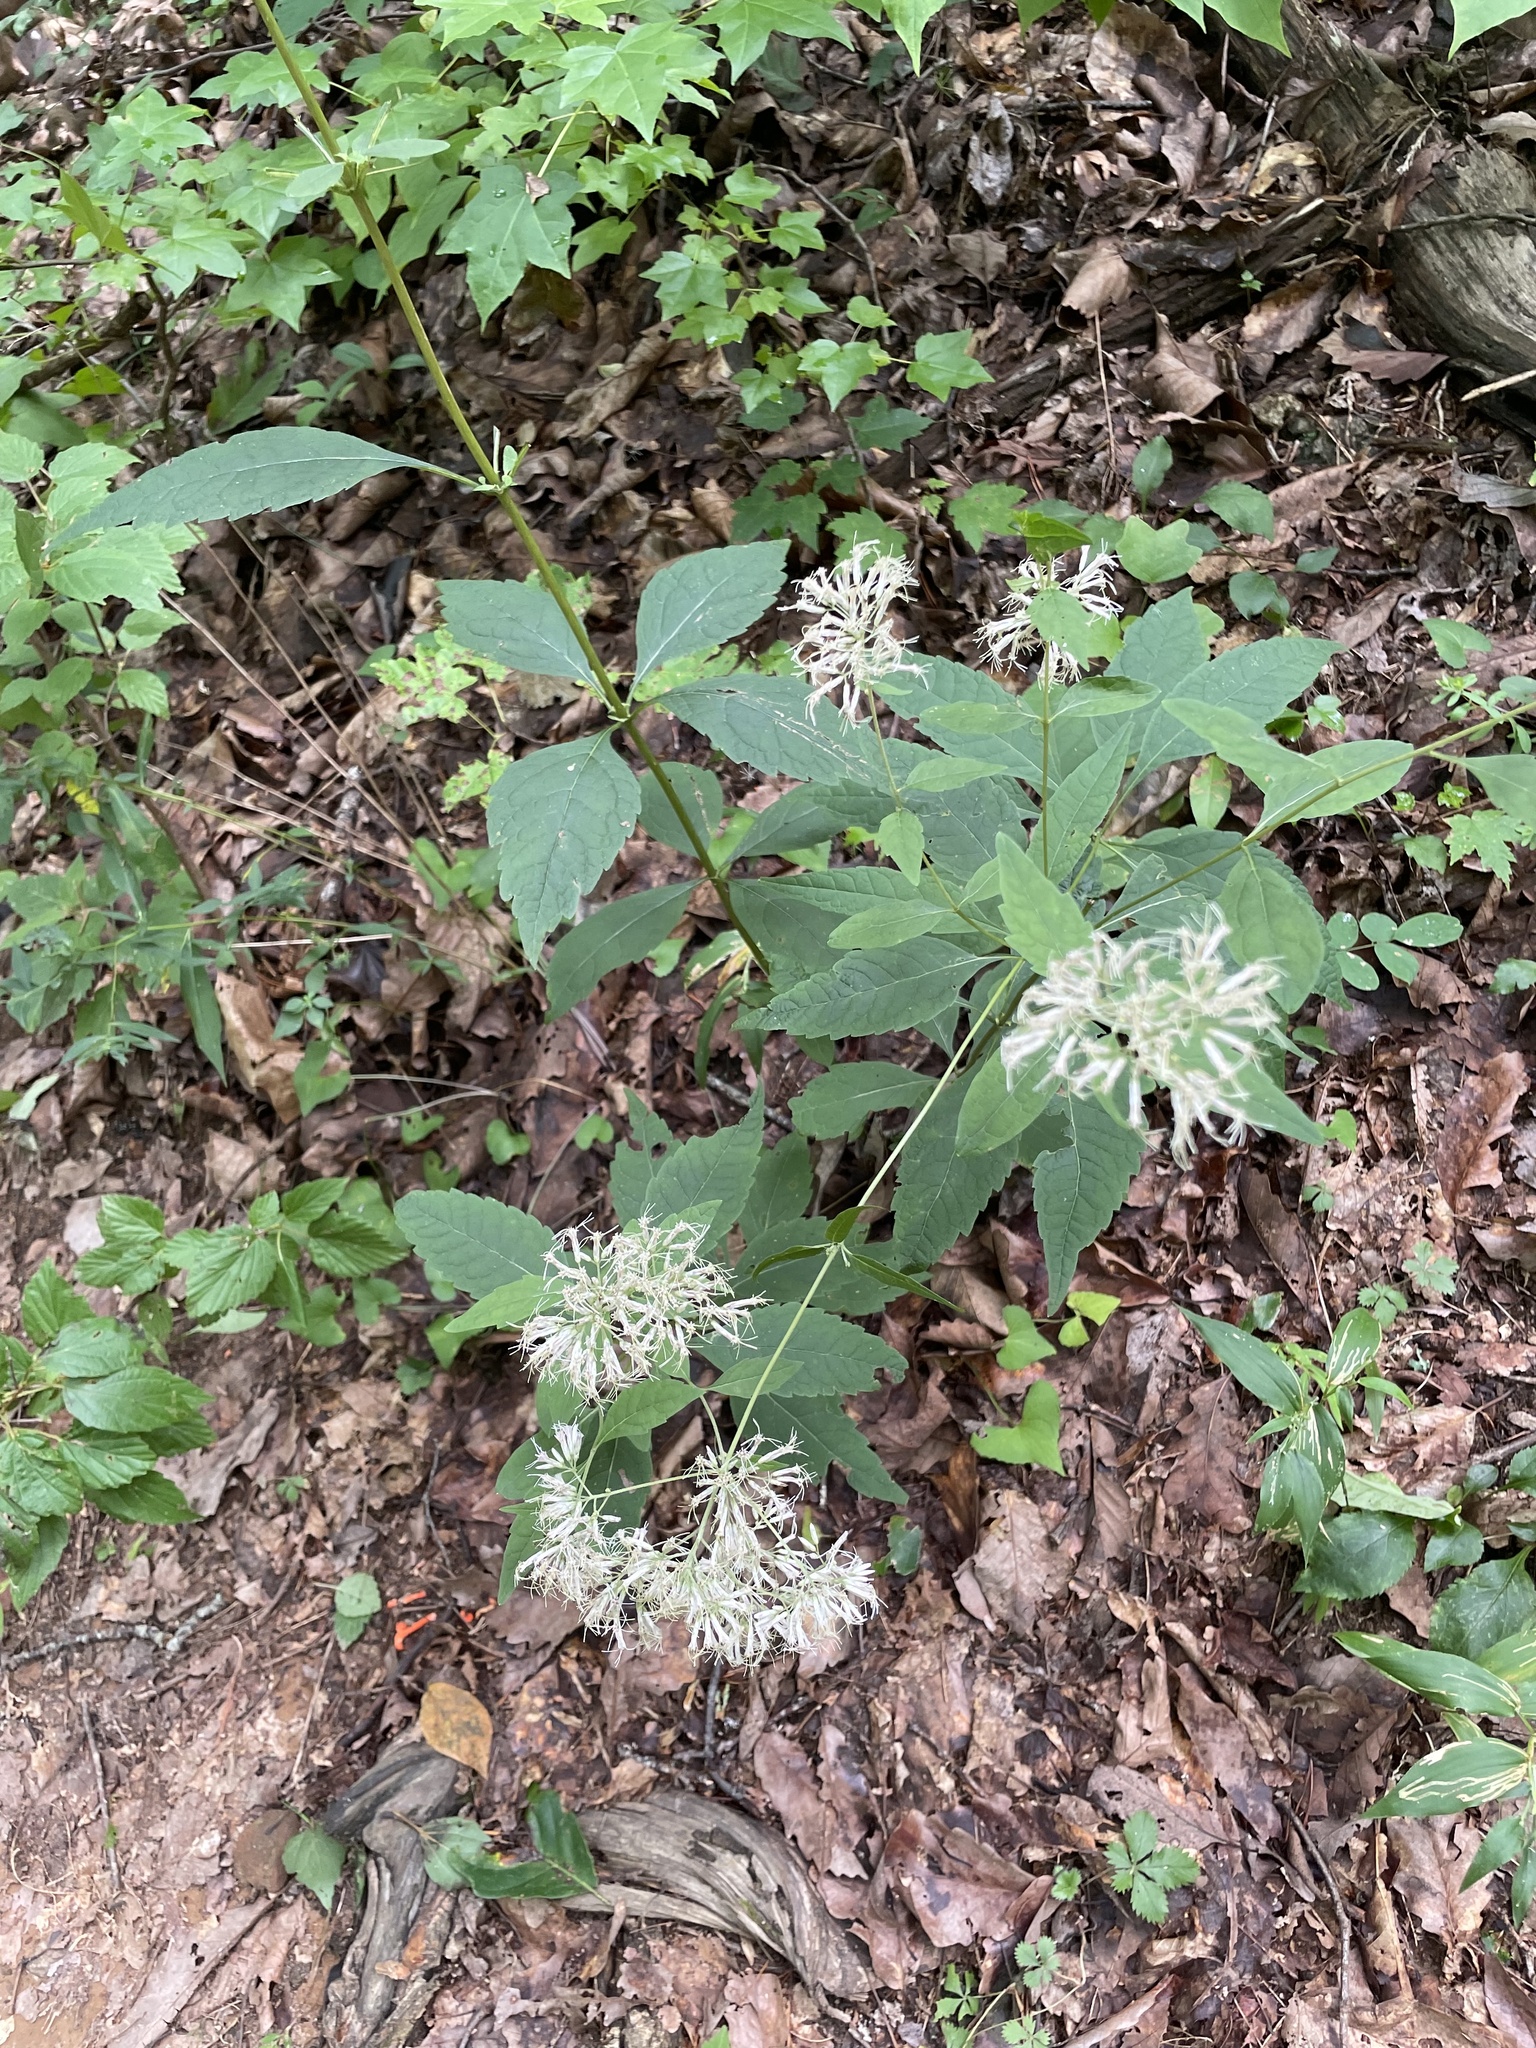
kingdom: Plantae
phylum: Tracheophyta
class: Magnoliopsida
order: Asterales
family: Asteraceae
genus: Eutrochium
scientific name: Eutrochium purpureum
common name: Gravelroot
